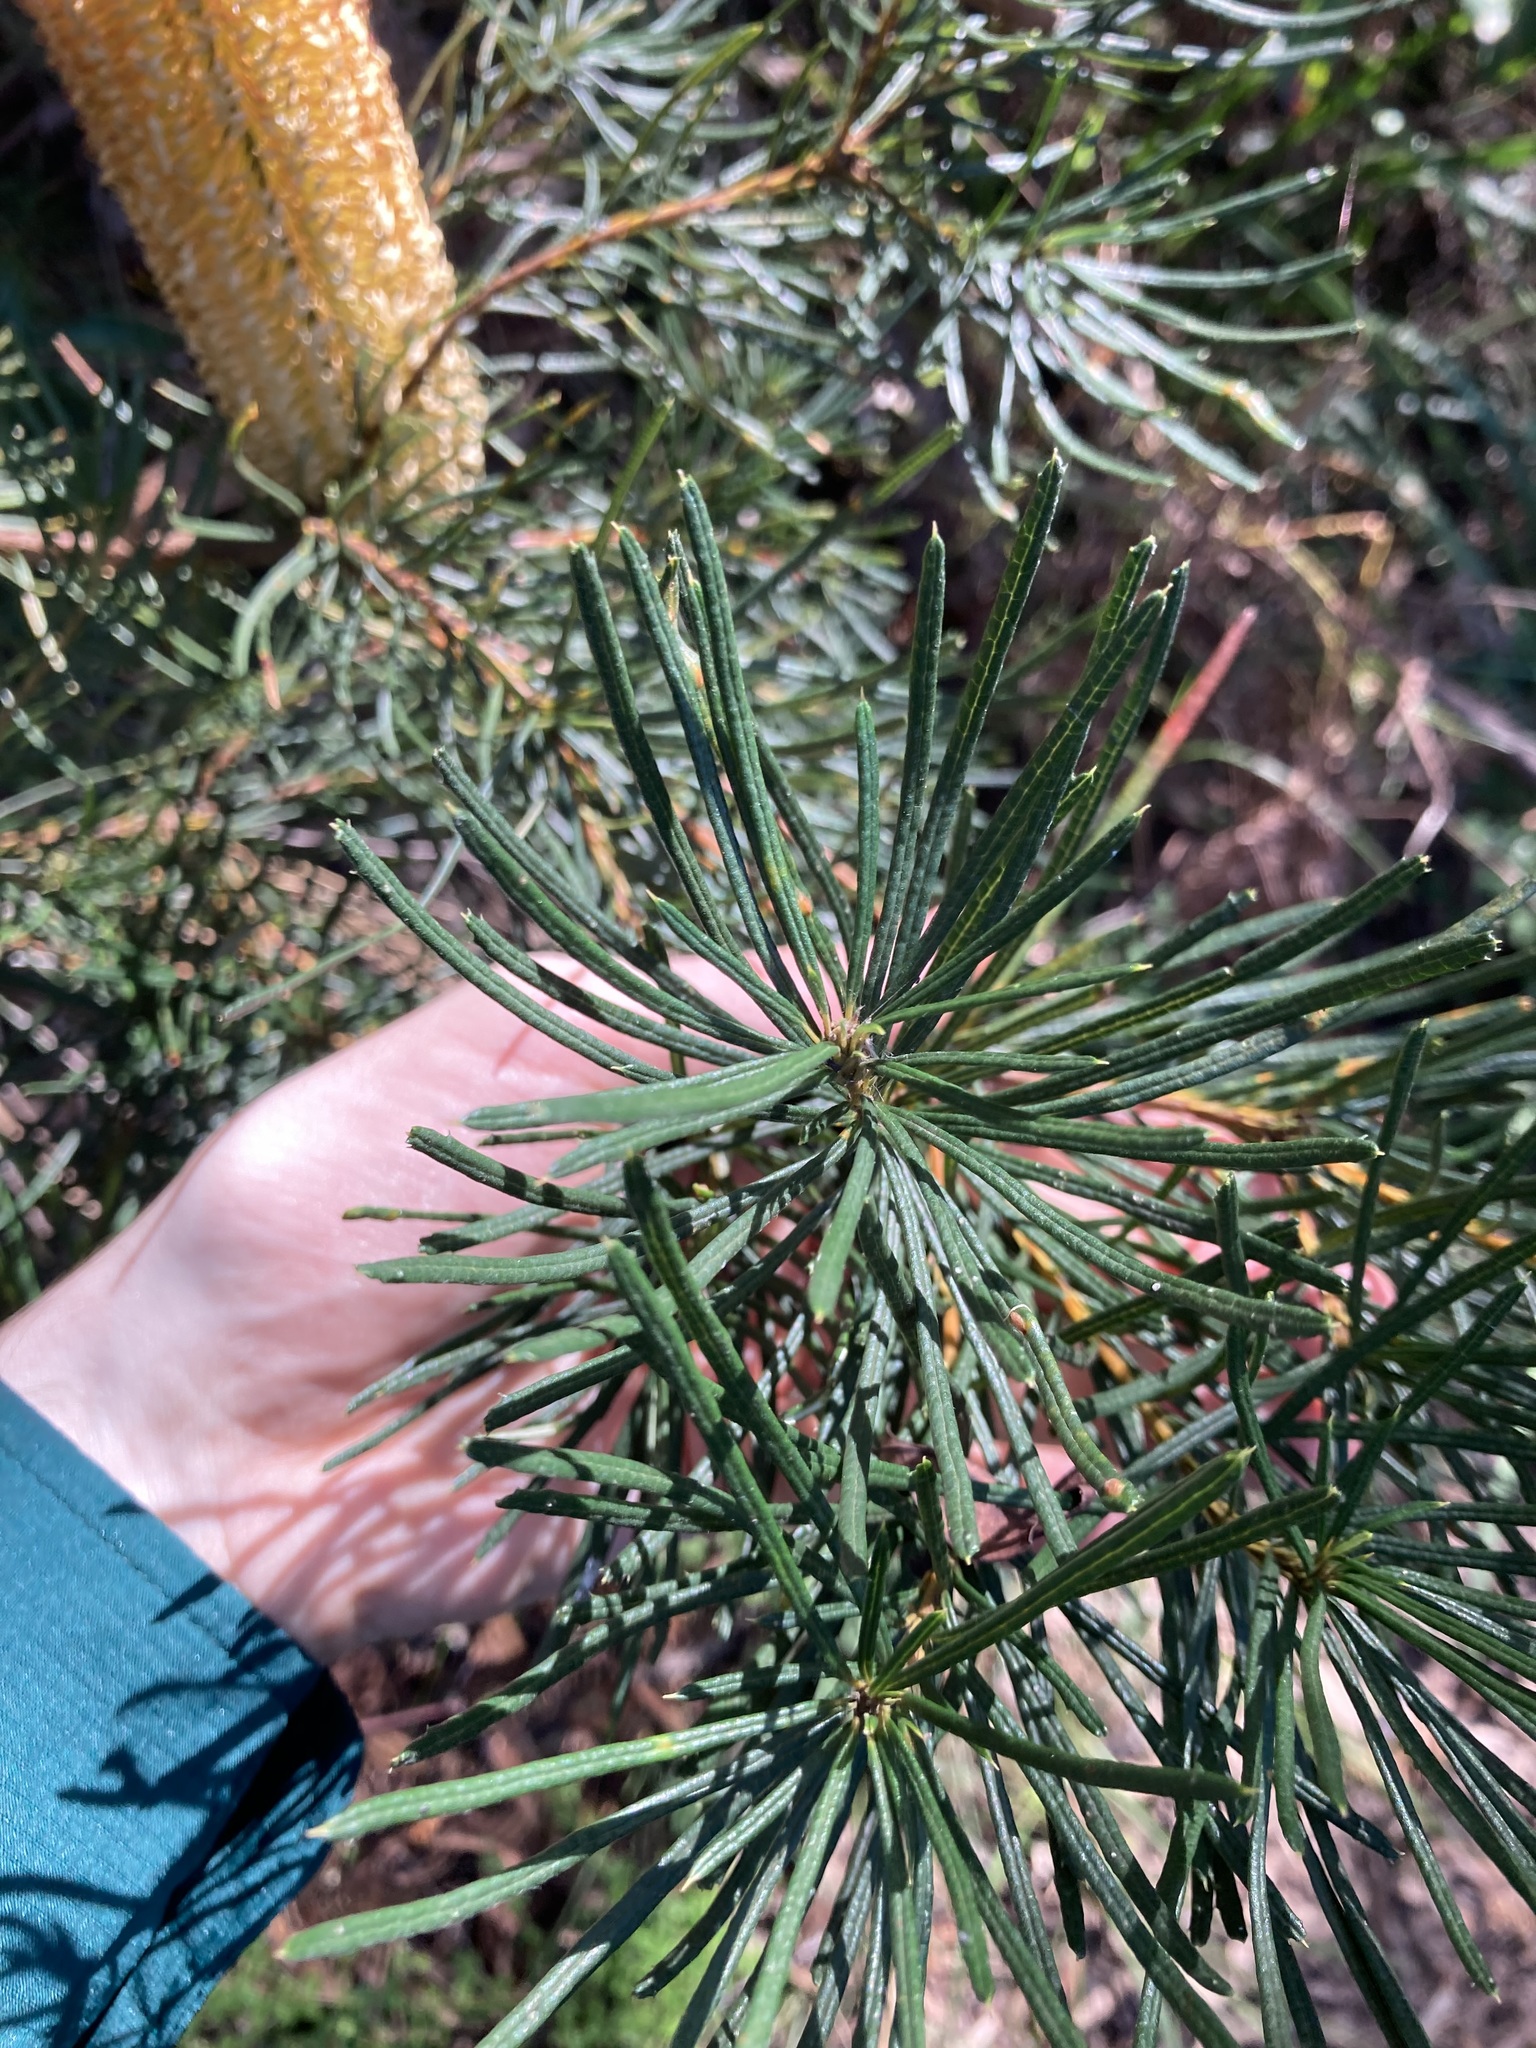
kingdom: Plantae
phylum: Tracheophyta
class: Magnoliopsida
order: Proteales
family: Proteaceae
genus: Banksia
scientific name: Banksia spinulosa
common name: Hairpin banksia
